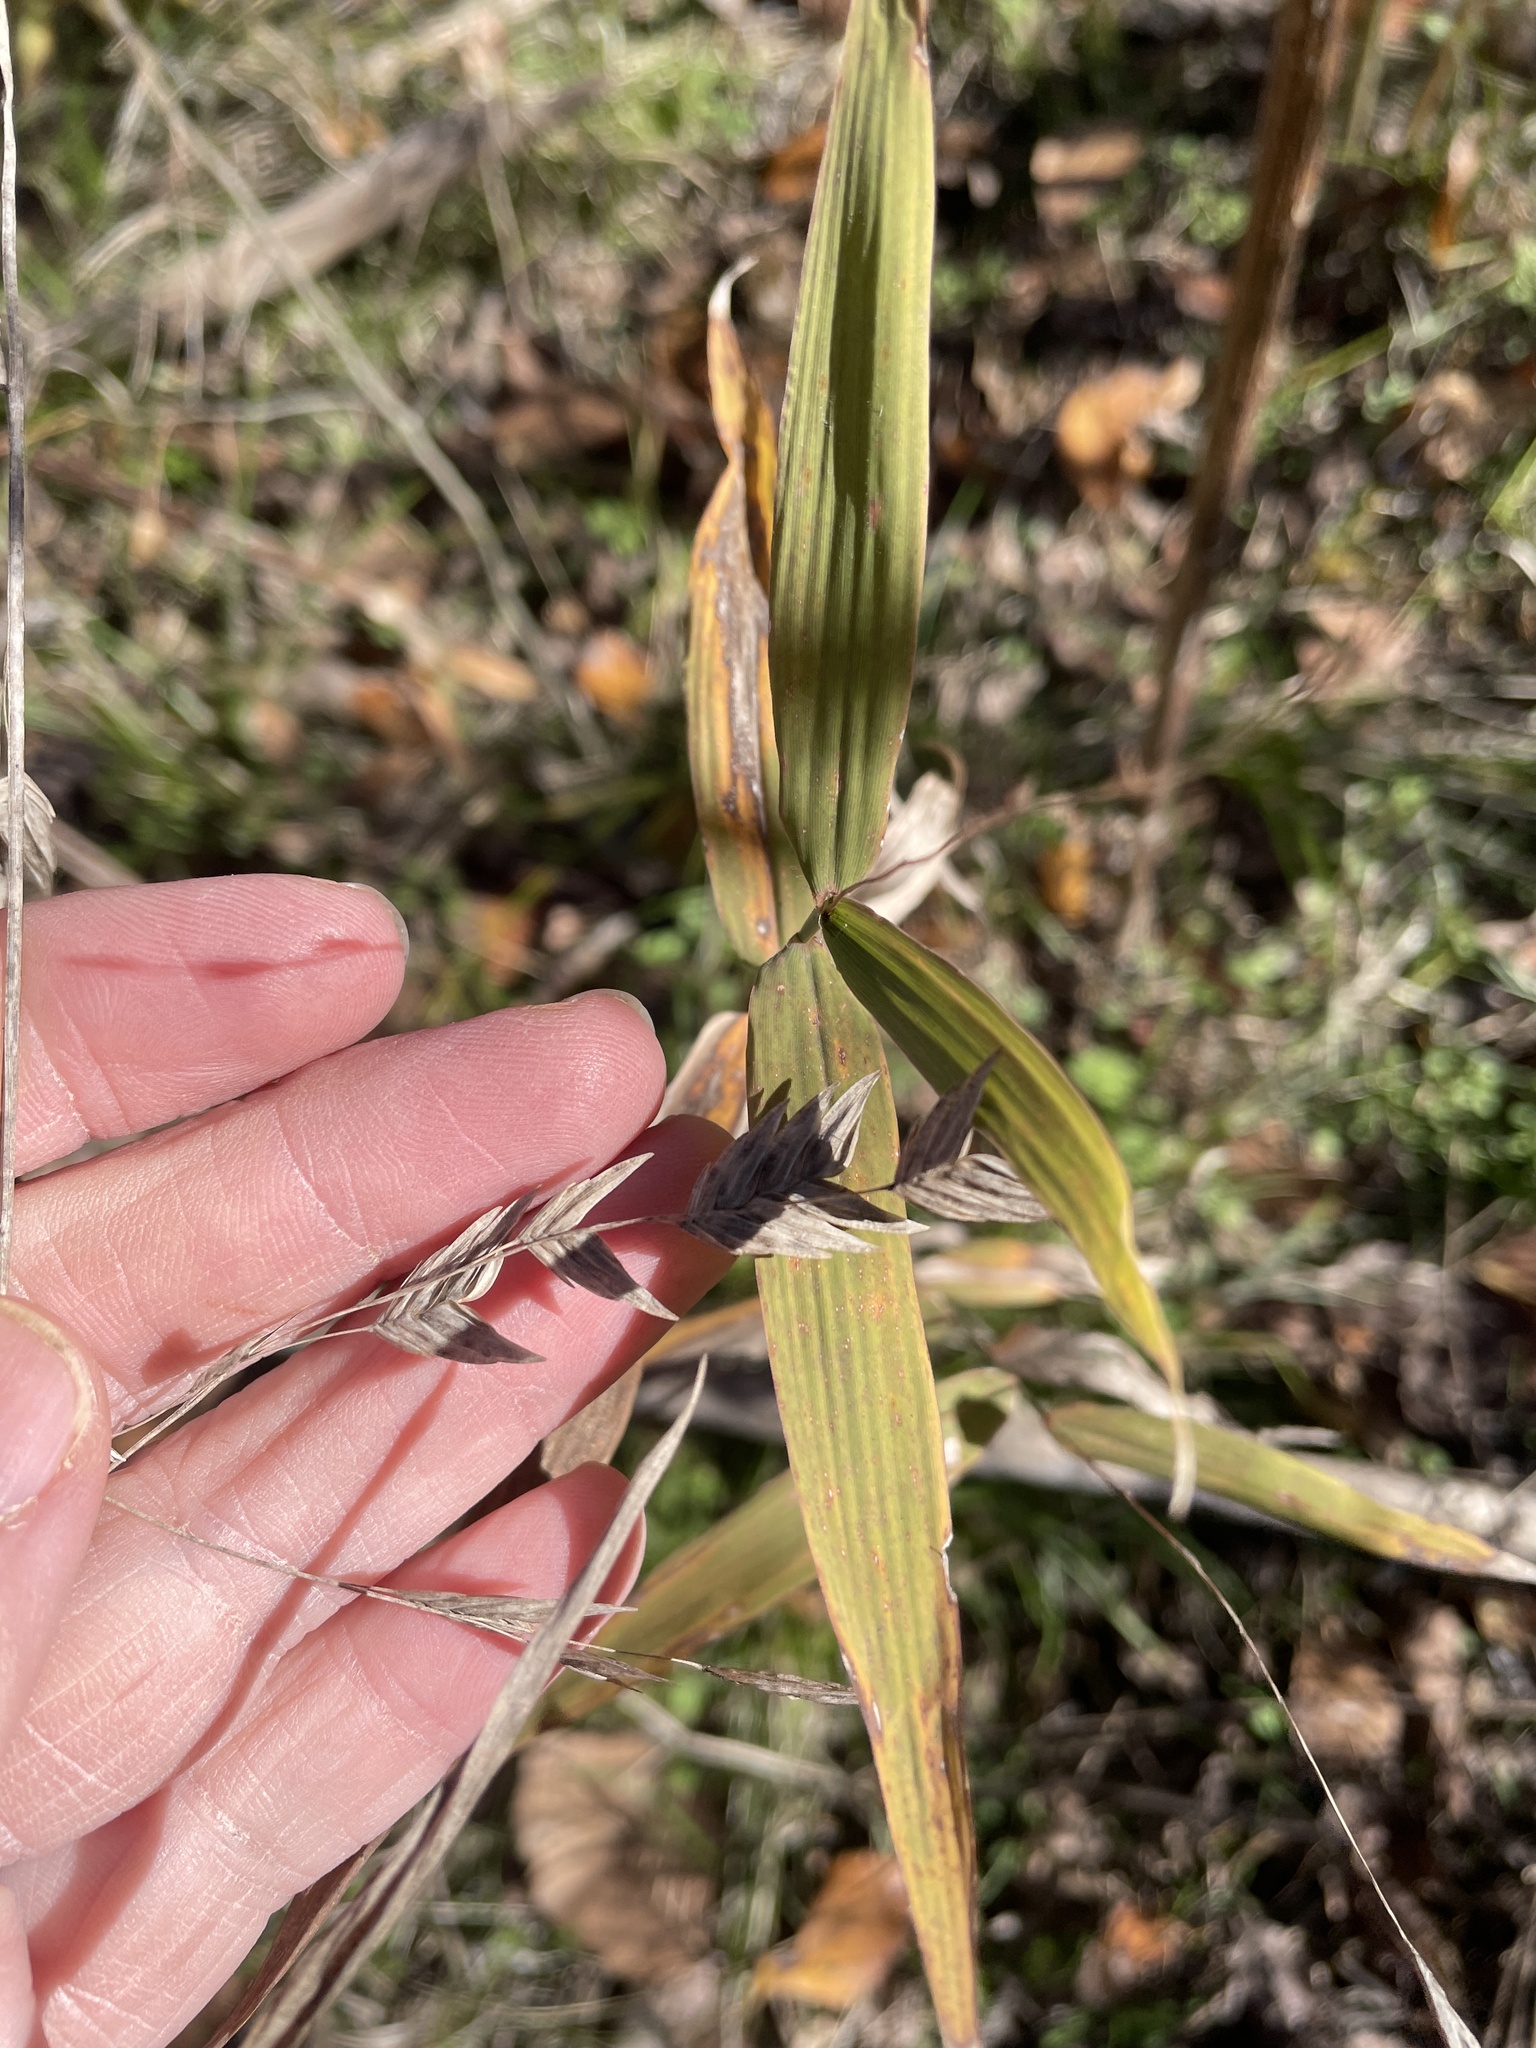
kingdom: Plantae
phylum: Tracheophyta
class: Liliopsida
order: Poales
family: Poaceae
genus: Chasmanthium
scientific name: Chasmanthium latifolium
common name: Broad-leaved chasmanthium
